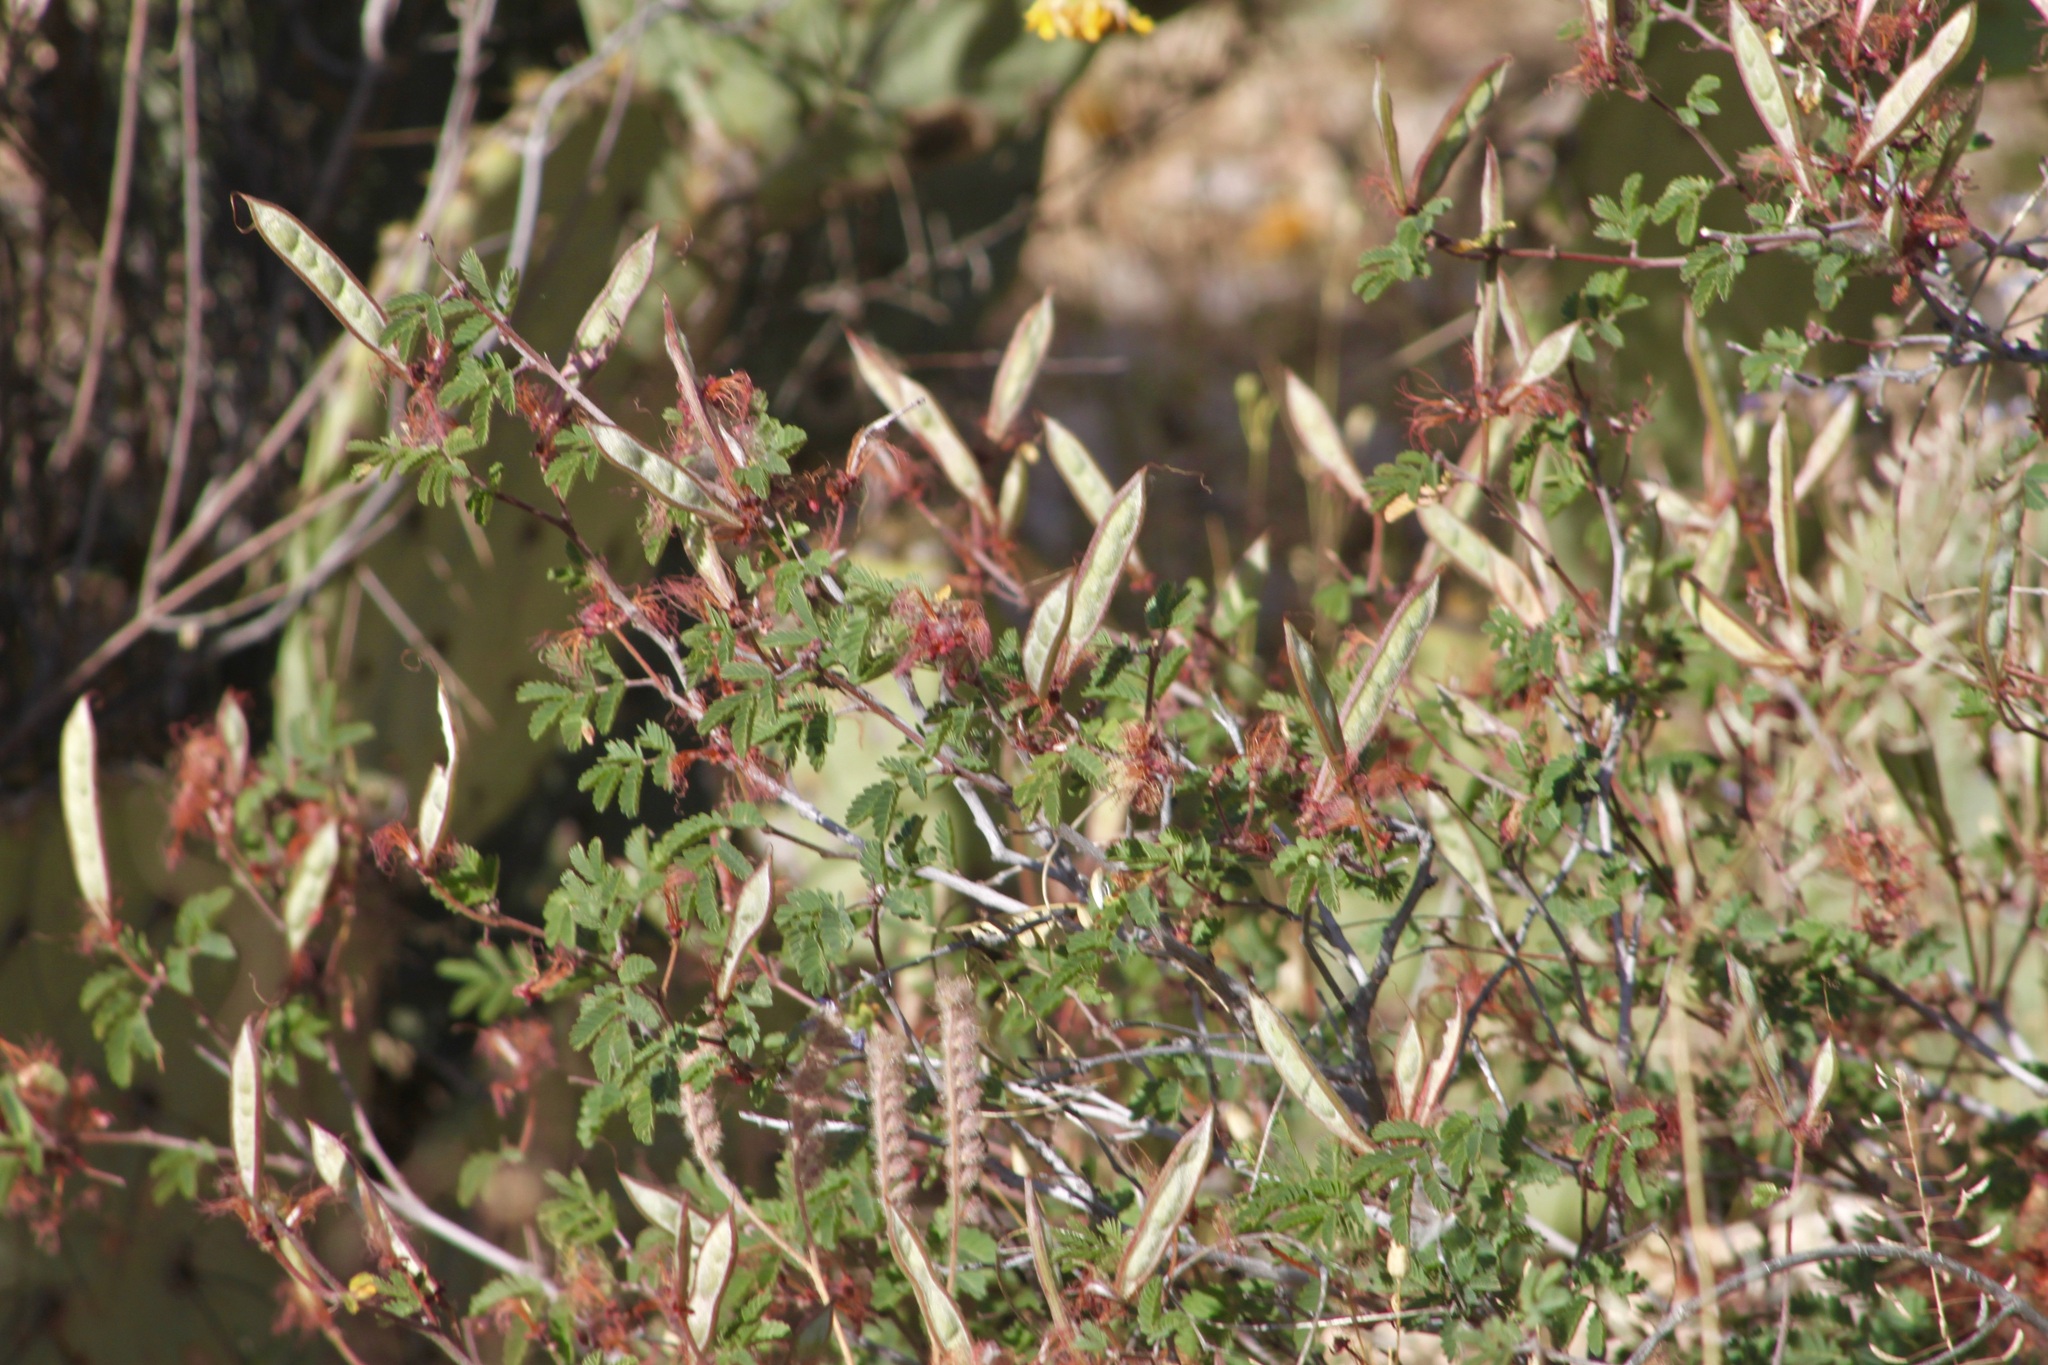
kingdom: Plantae
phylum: Tracheophyta
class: Magnoliopsida
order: Fabales
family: Fabaceae
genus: Calliandra
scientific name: Calliandra eriophylla
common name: Fairy-duster
